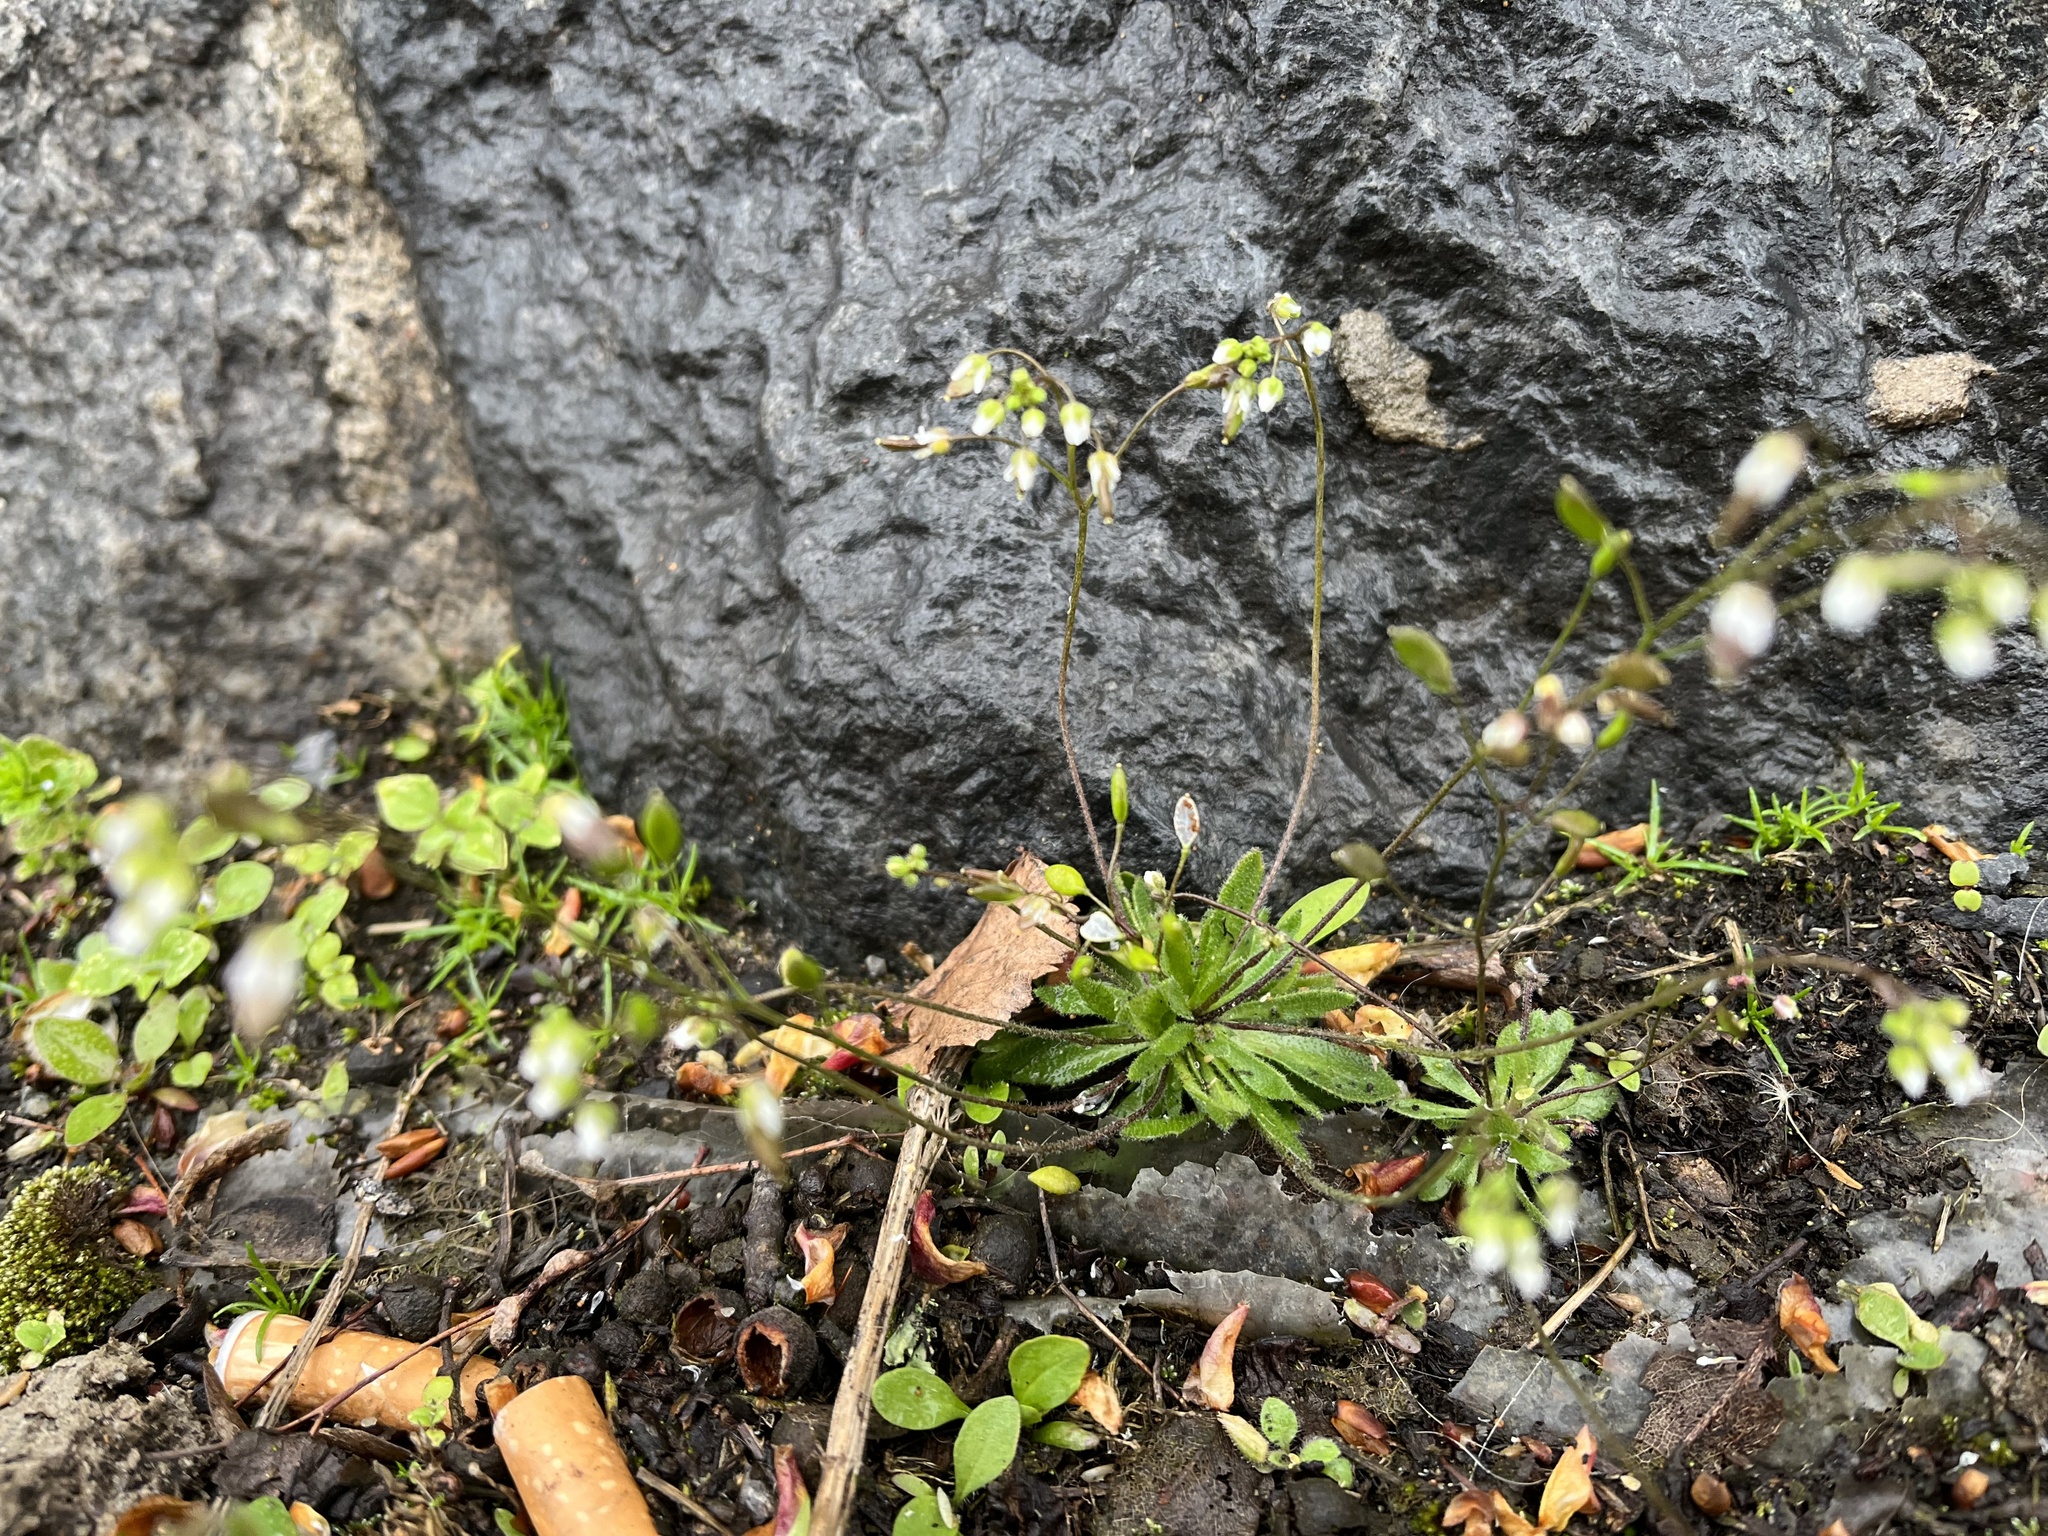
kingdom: Plantae
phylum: Tracheophyta
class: Magnoliopsida
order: Brassicales
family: Brassicaceae
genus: Draba
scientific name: Draba verna
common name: Spring draba
